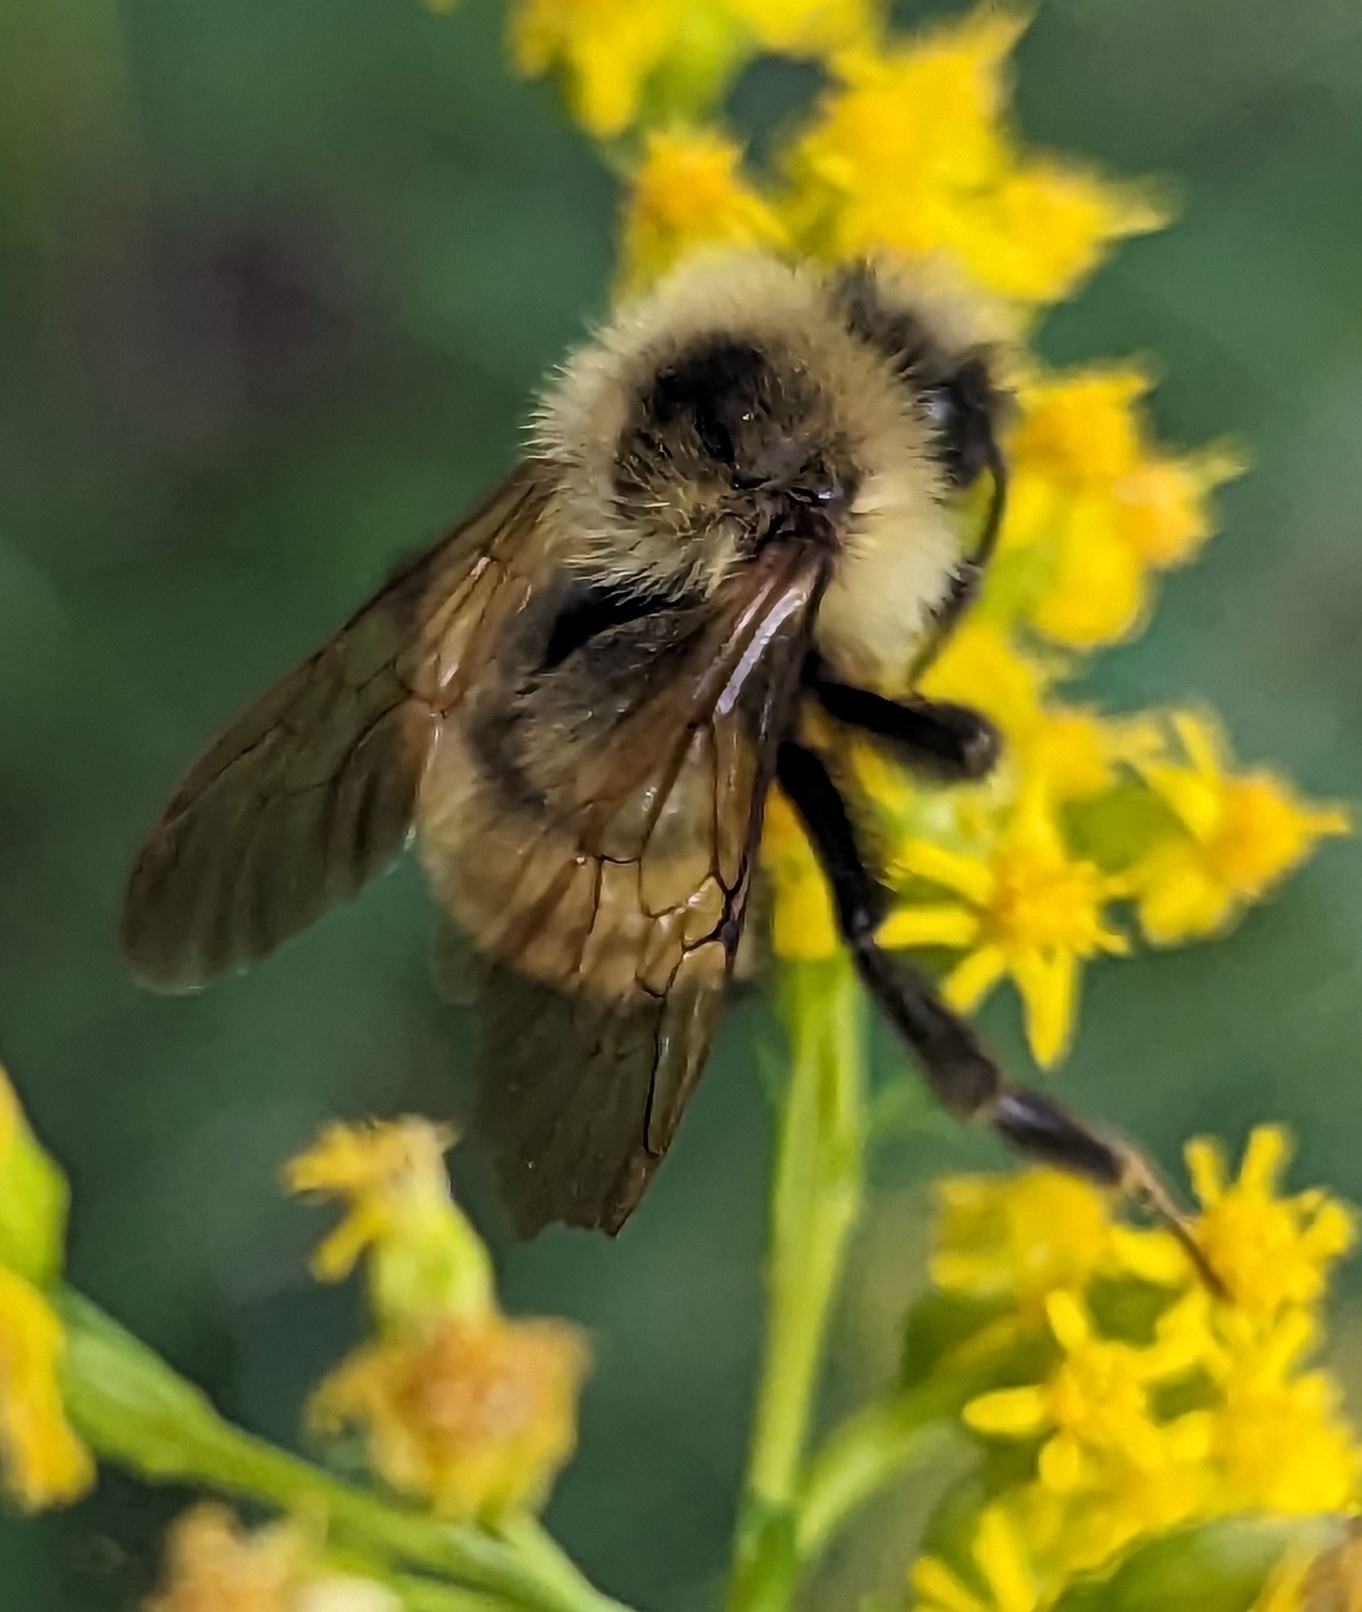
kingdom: Animalia
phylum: Arthropoda
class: Insecta
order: Hymenoptera
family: Apidae
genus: Bombus
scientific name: Bombus citrinus
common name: Lemon cuckoo bumble bee
